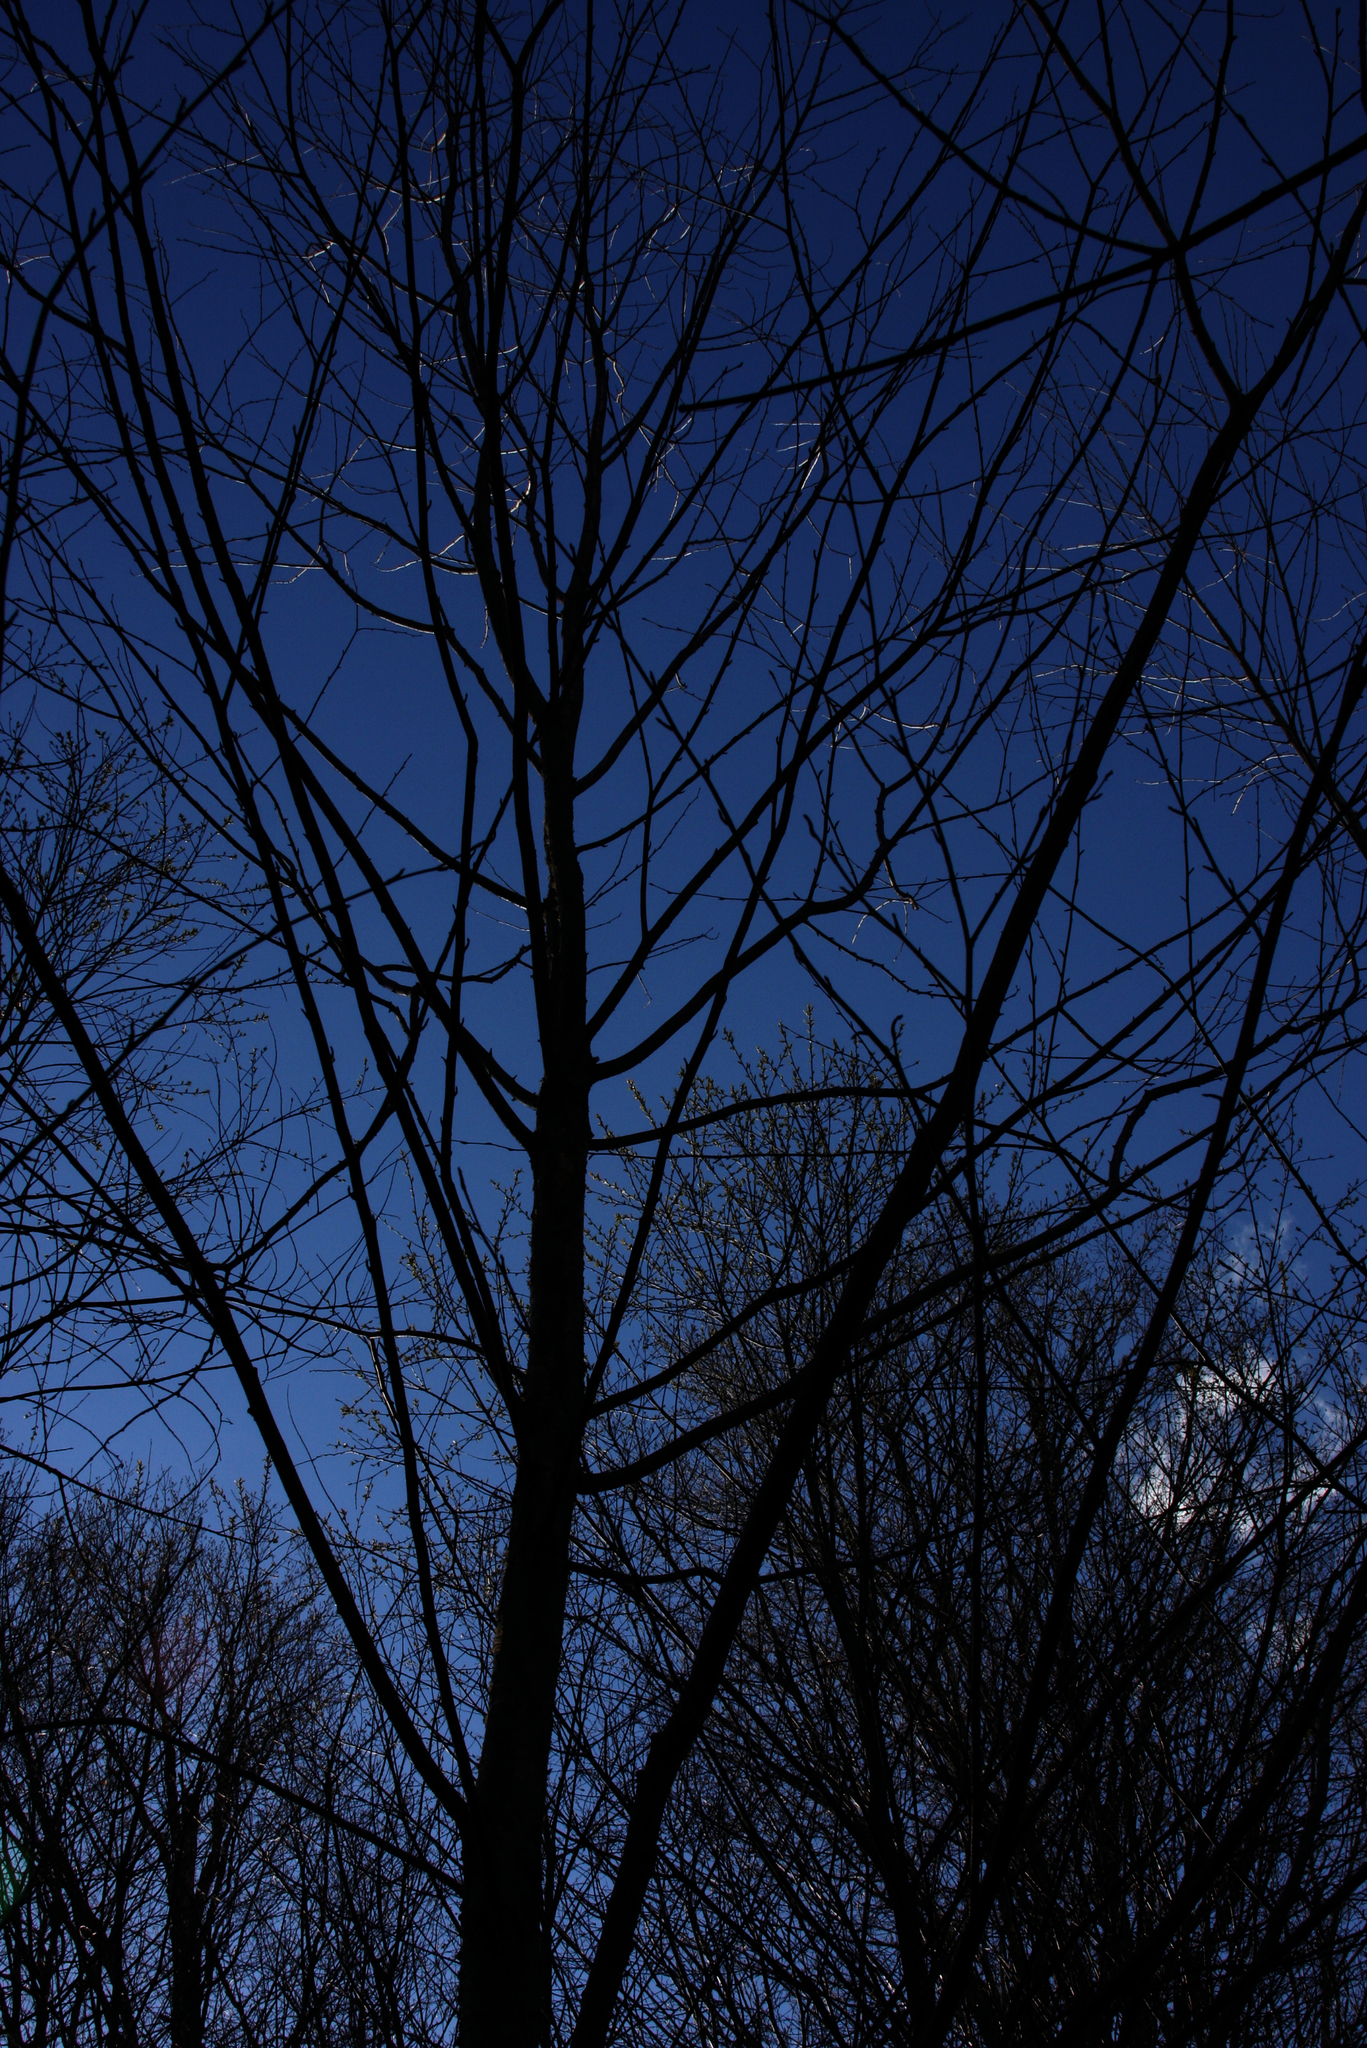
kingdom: Plantae
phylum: Tracheophyta
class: Magnoliopsida
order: Fagales
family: Betulaceae
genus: Betula
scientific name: Betula alleghaniensis
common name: Yellow birch
